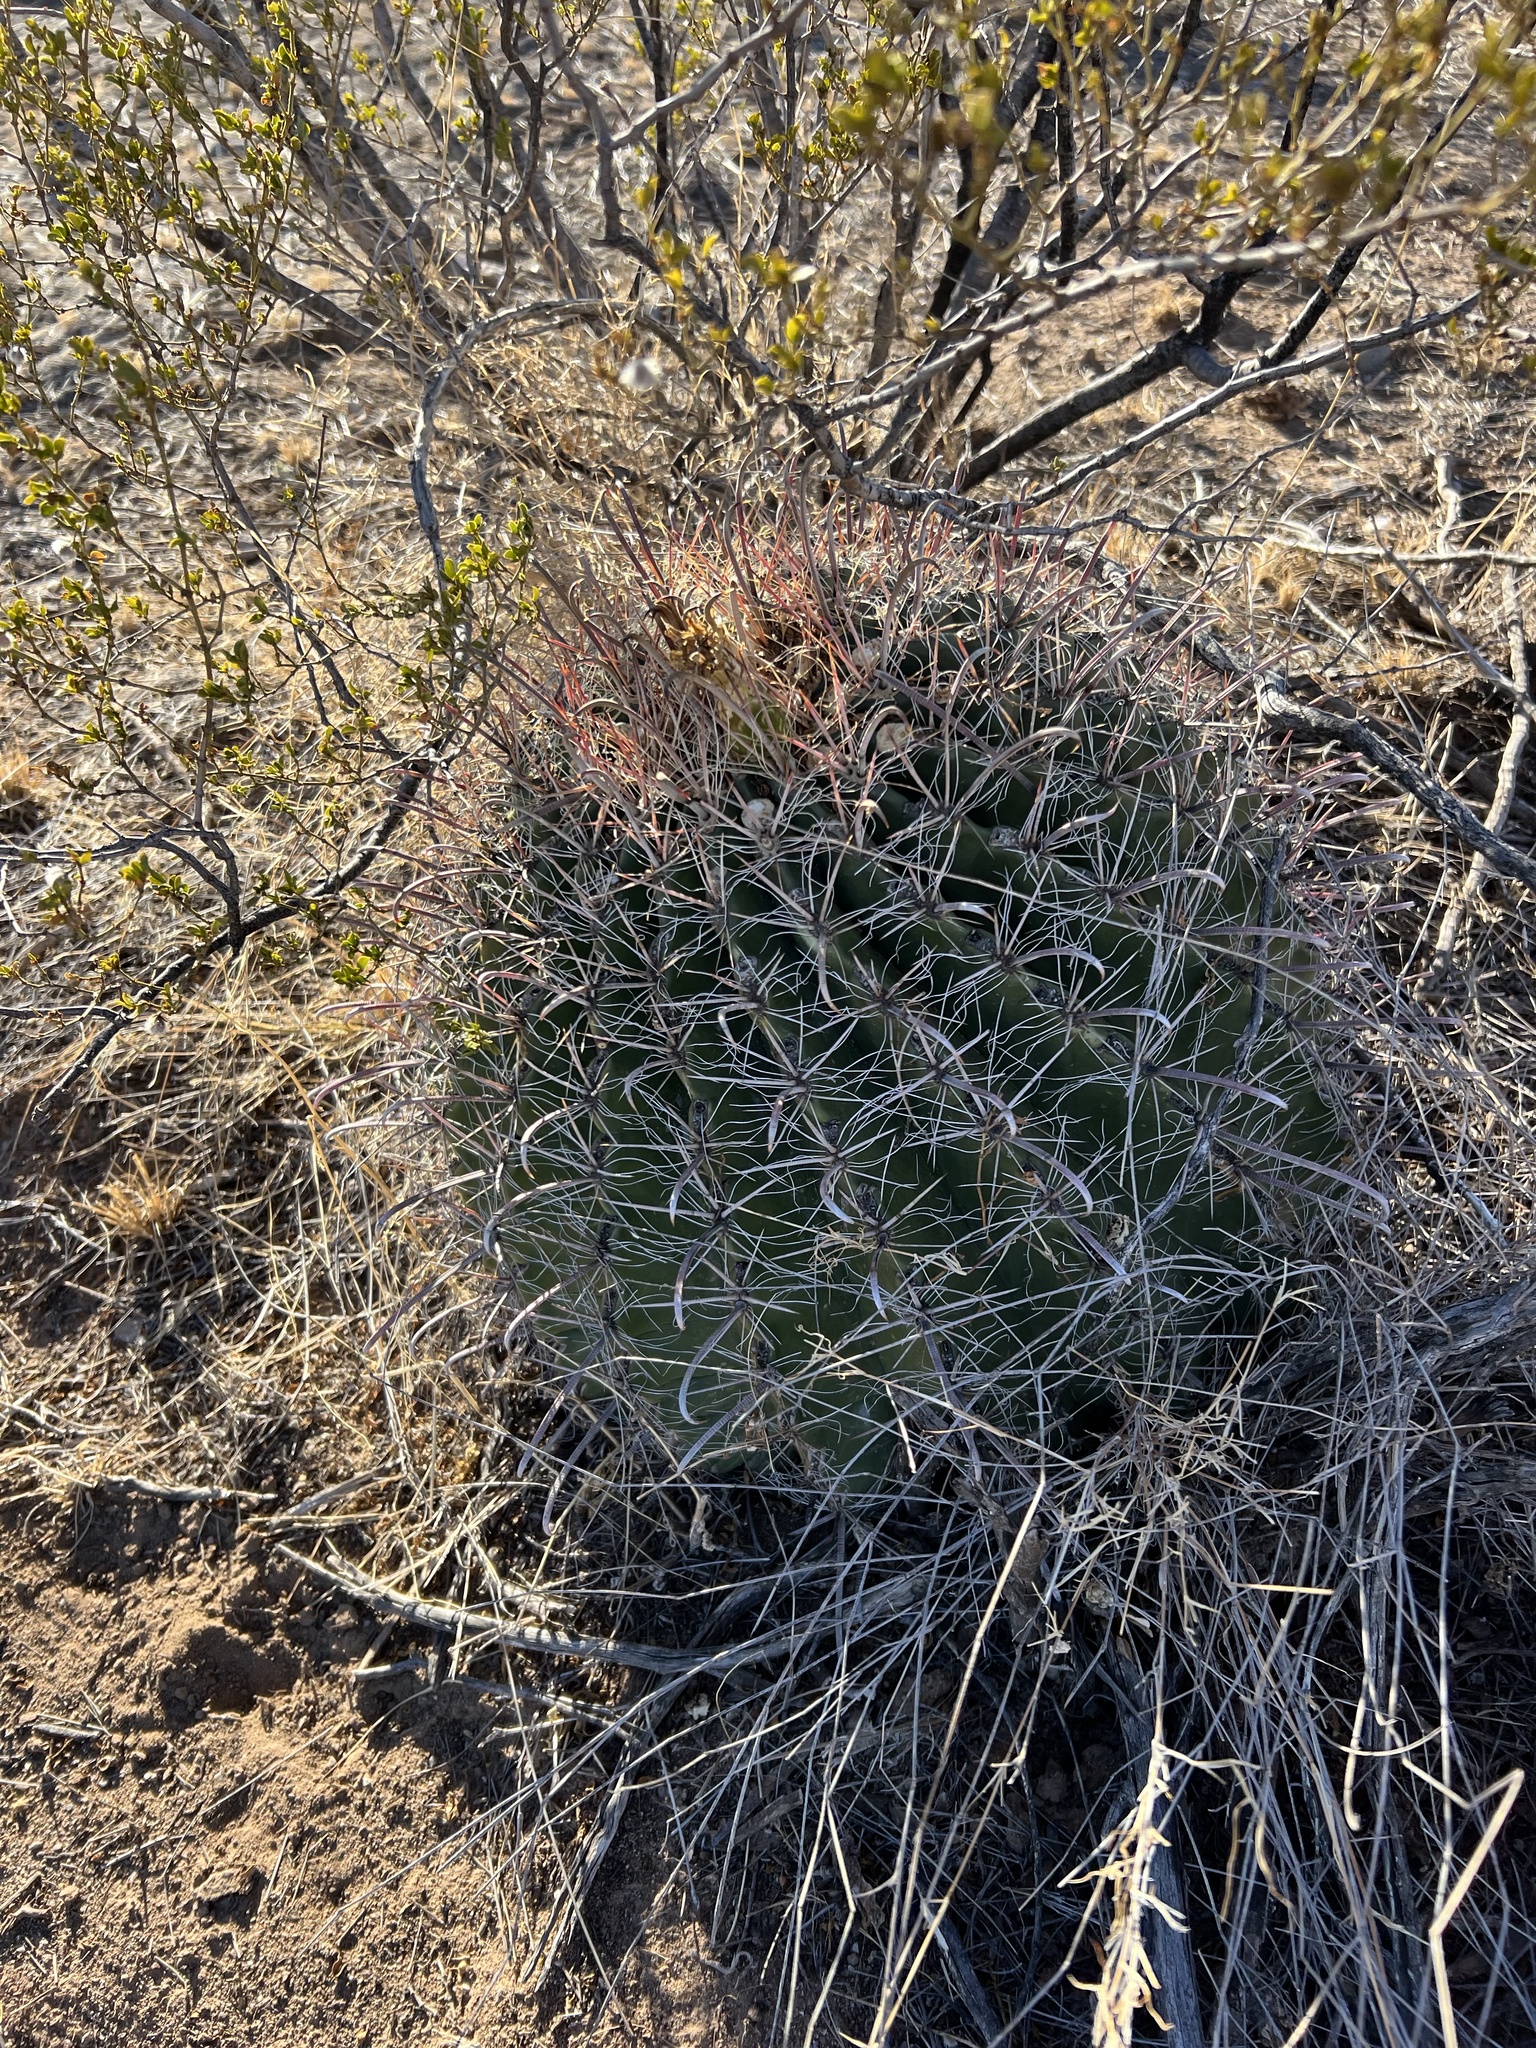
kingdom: Plantae
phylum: Tracheophyta
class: Magnoliopsida
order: Caryophyllales
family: Cactaceae
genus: Ferocactus
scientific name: Ferocactus wislizeni
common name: Candy barrel cactus
